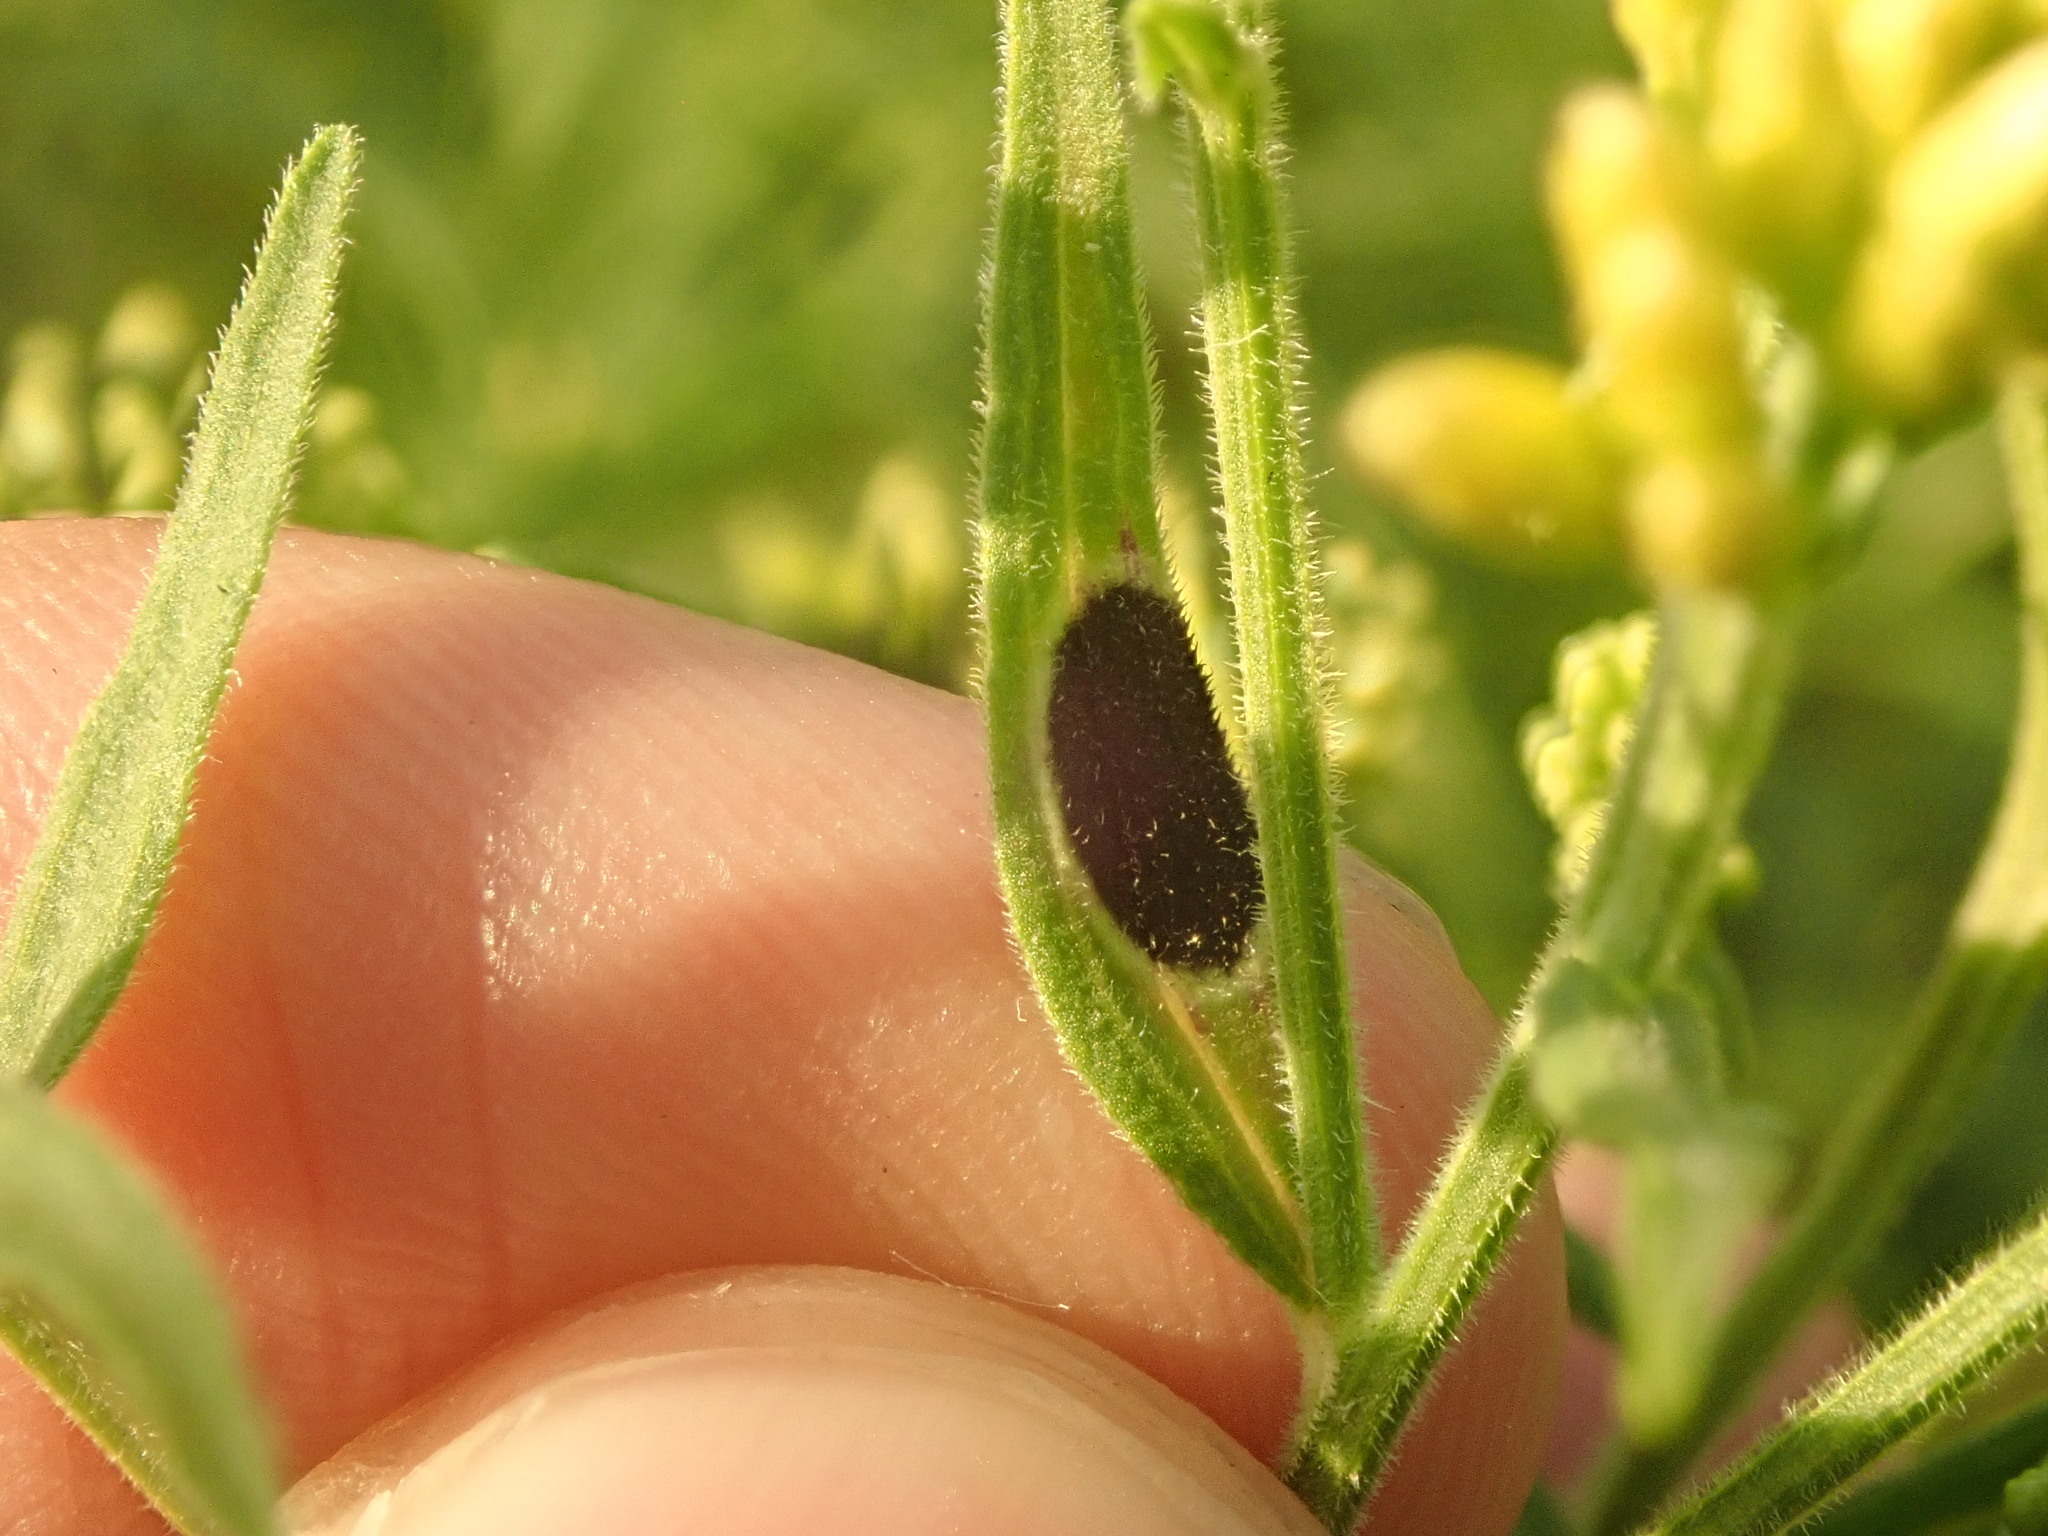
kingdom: Animalia
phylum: Arthropoda
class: Insecta
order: Diptera
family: Cecidomyiidae
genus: Asteromyia
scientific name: Asteromyia euthamiae
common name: Euthamia leaf gall midge
